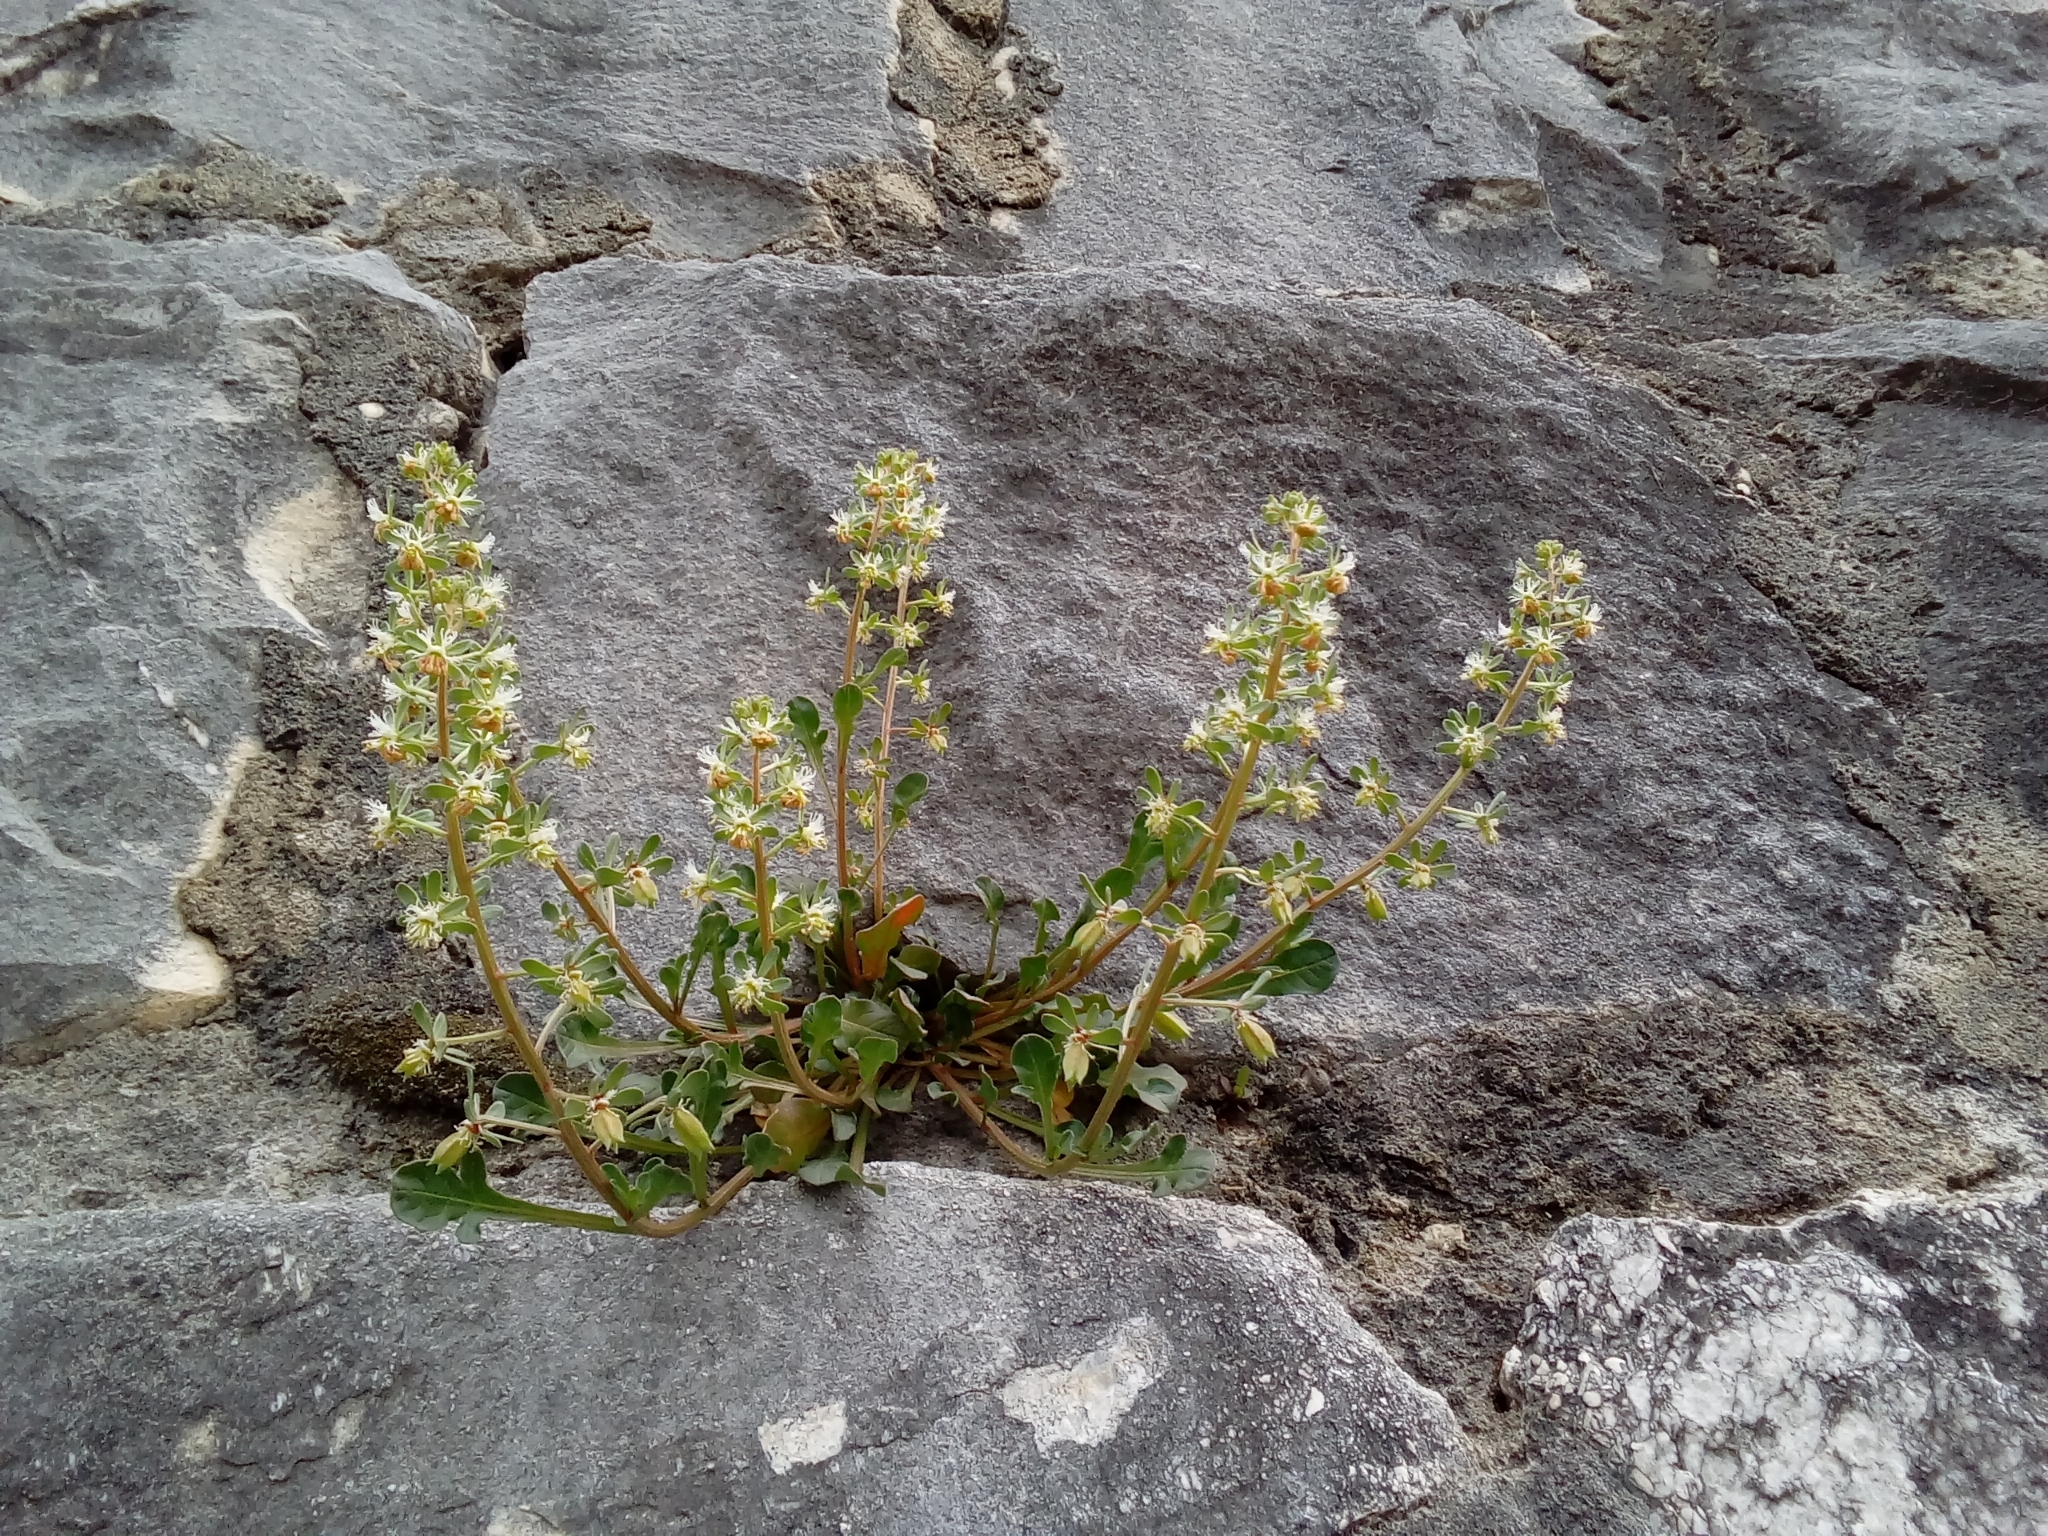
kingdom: Plantae
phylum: Tracheophyta
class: Magnoliopsida
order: Brassicales
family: Resedaceae
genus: Reseda
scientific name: Reseda phyteuma
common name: Corn mignonette
